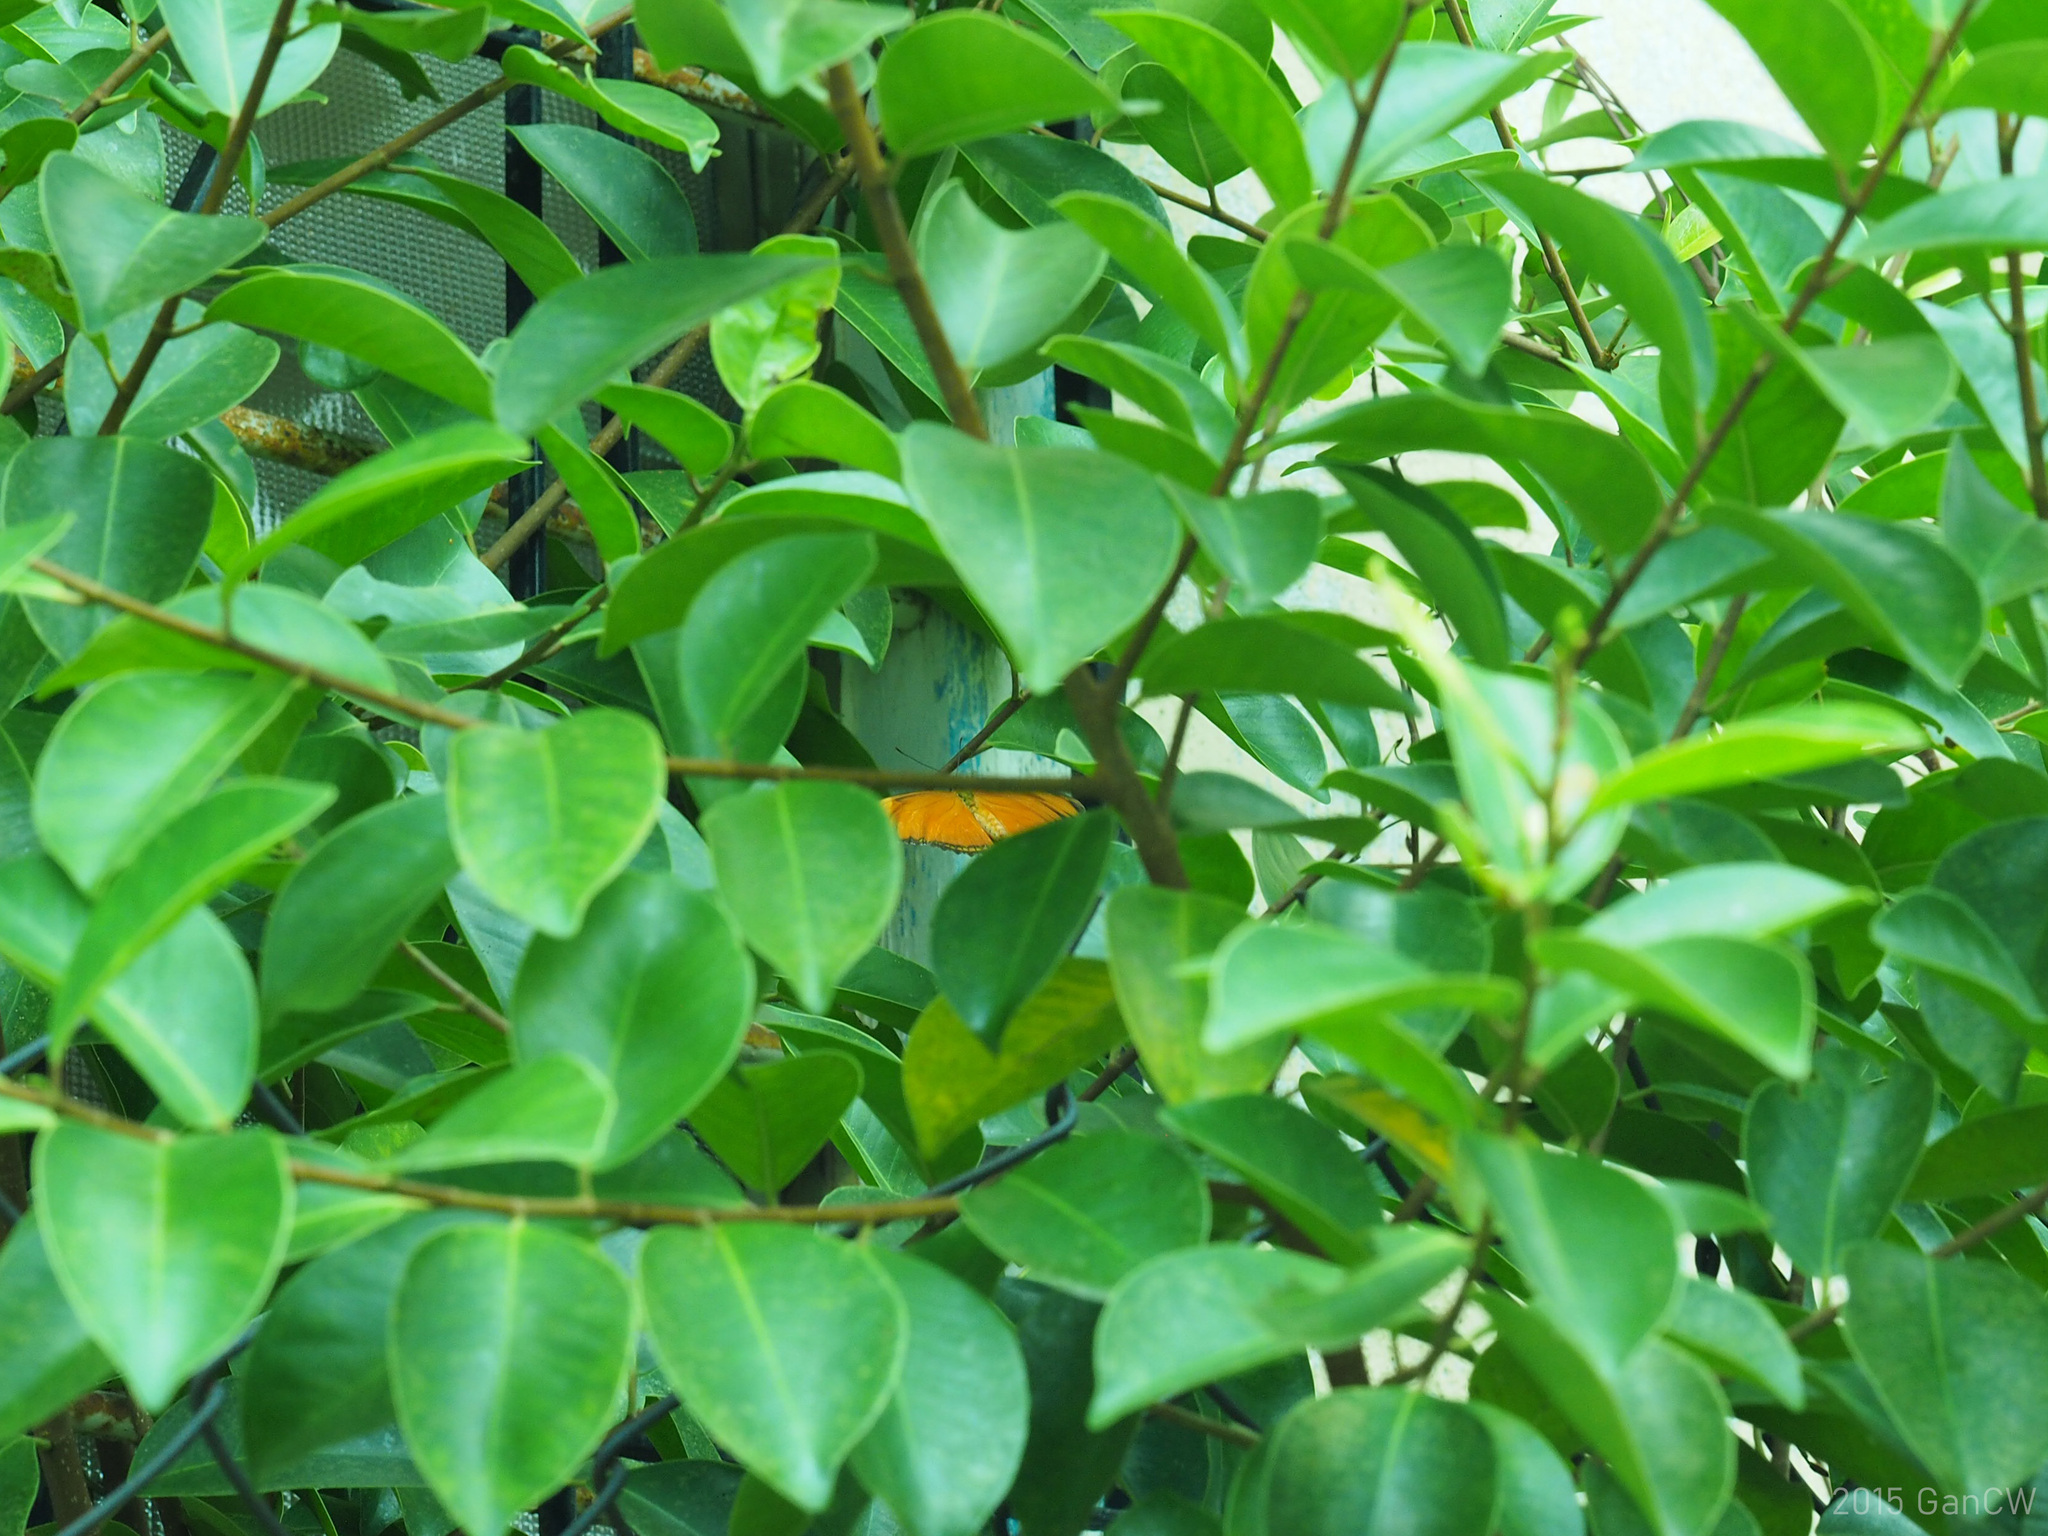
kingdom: Animalia
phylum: Arthropoda
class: Insecta
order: Lepidoptera
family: Nymphalidae
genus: Dryas
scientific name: Dryas iulia
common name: Flambeau
